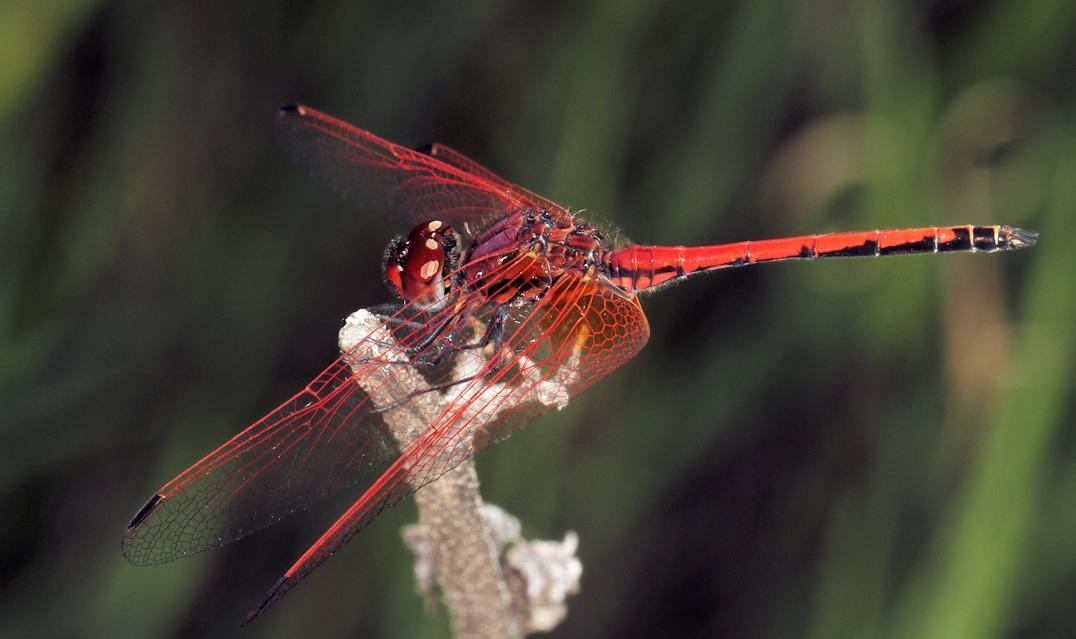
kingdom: Animalia
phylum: Arthropoda
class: Insecta
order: Odonata
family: Libellulidae
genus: Trithemis
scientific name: Trithemis arteriosa
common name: Red-veined dropwing
